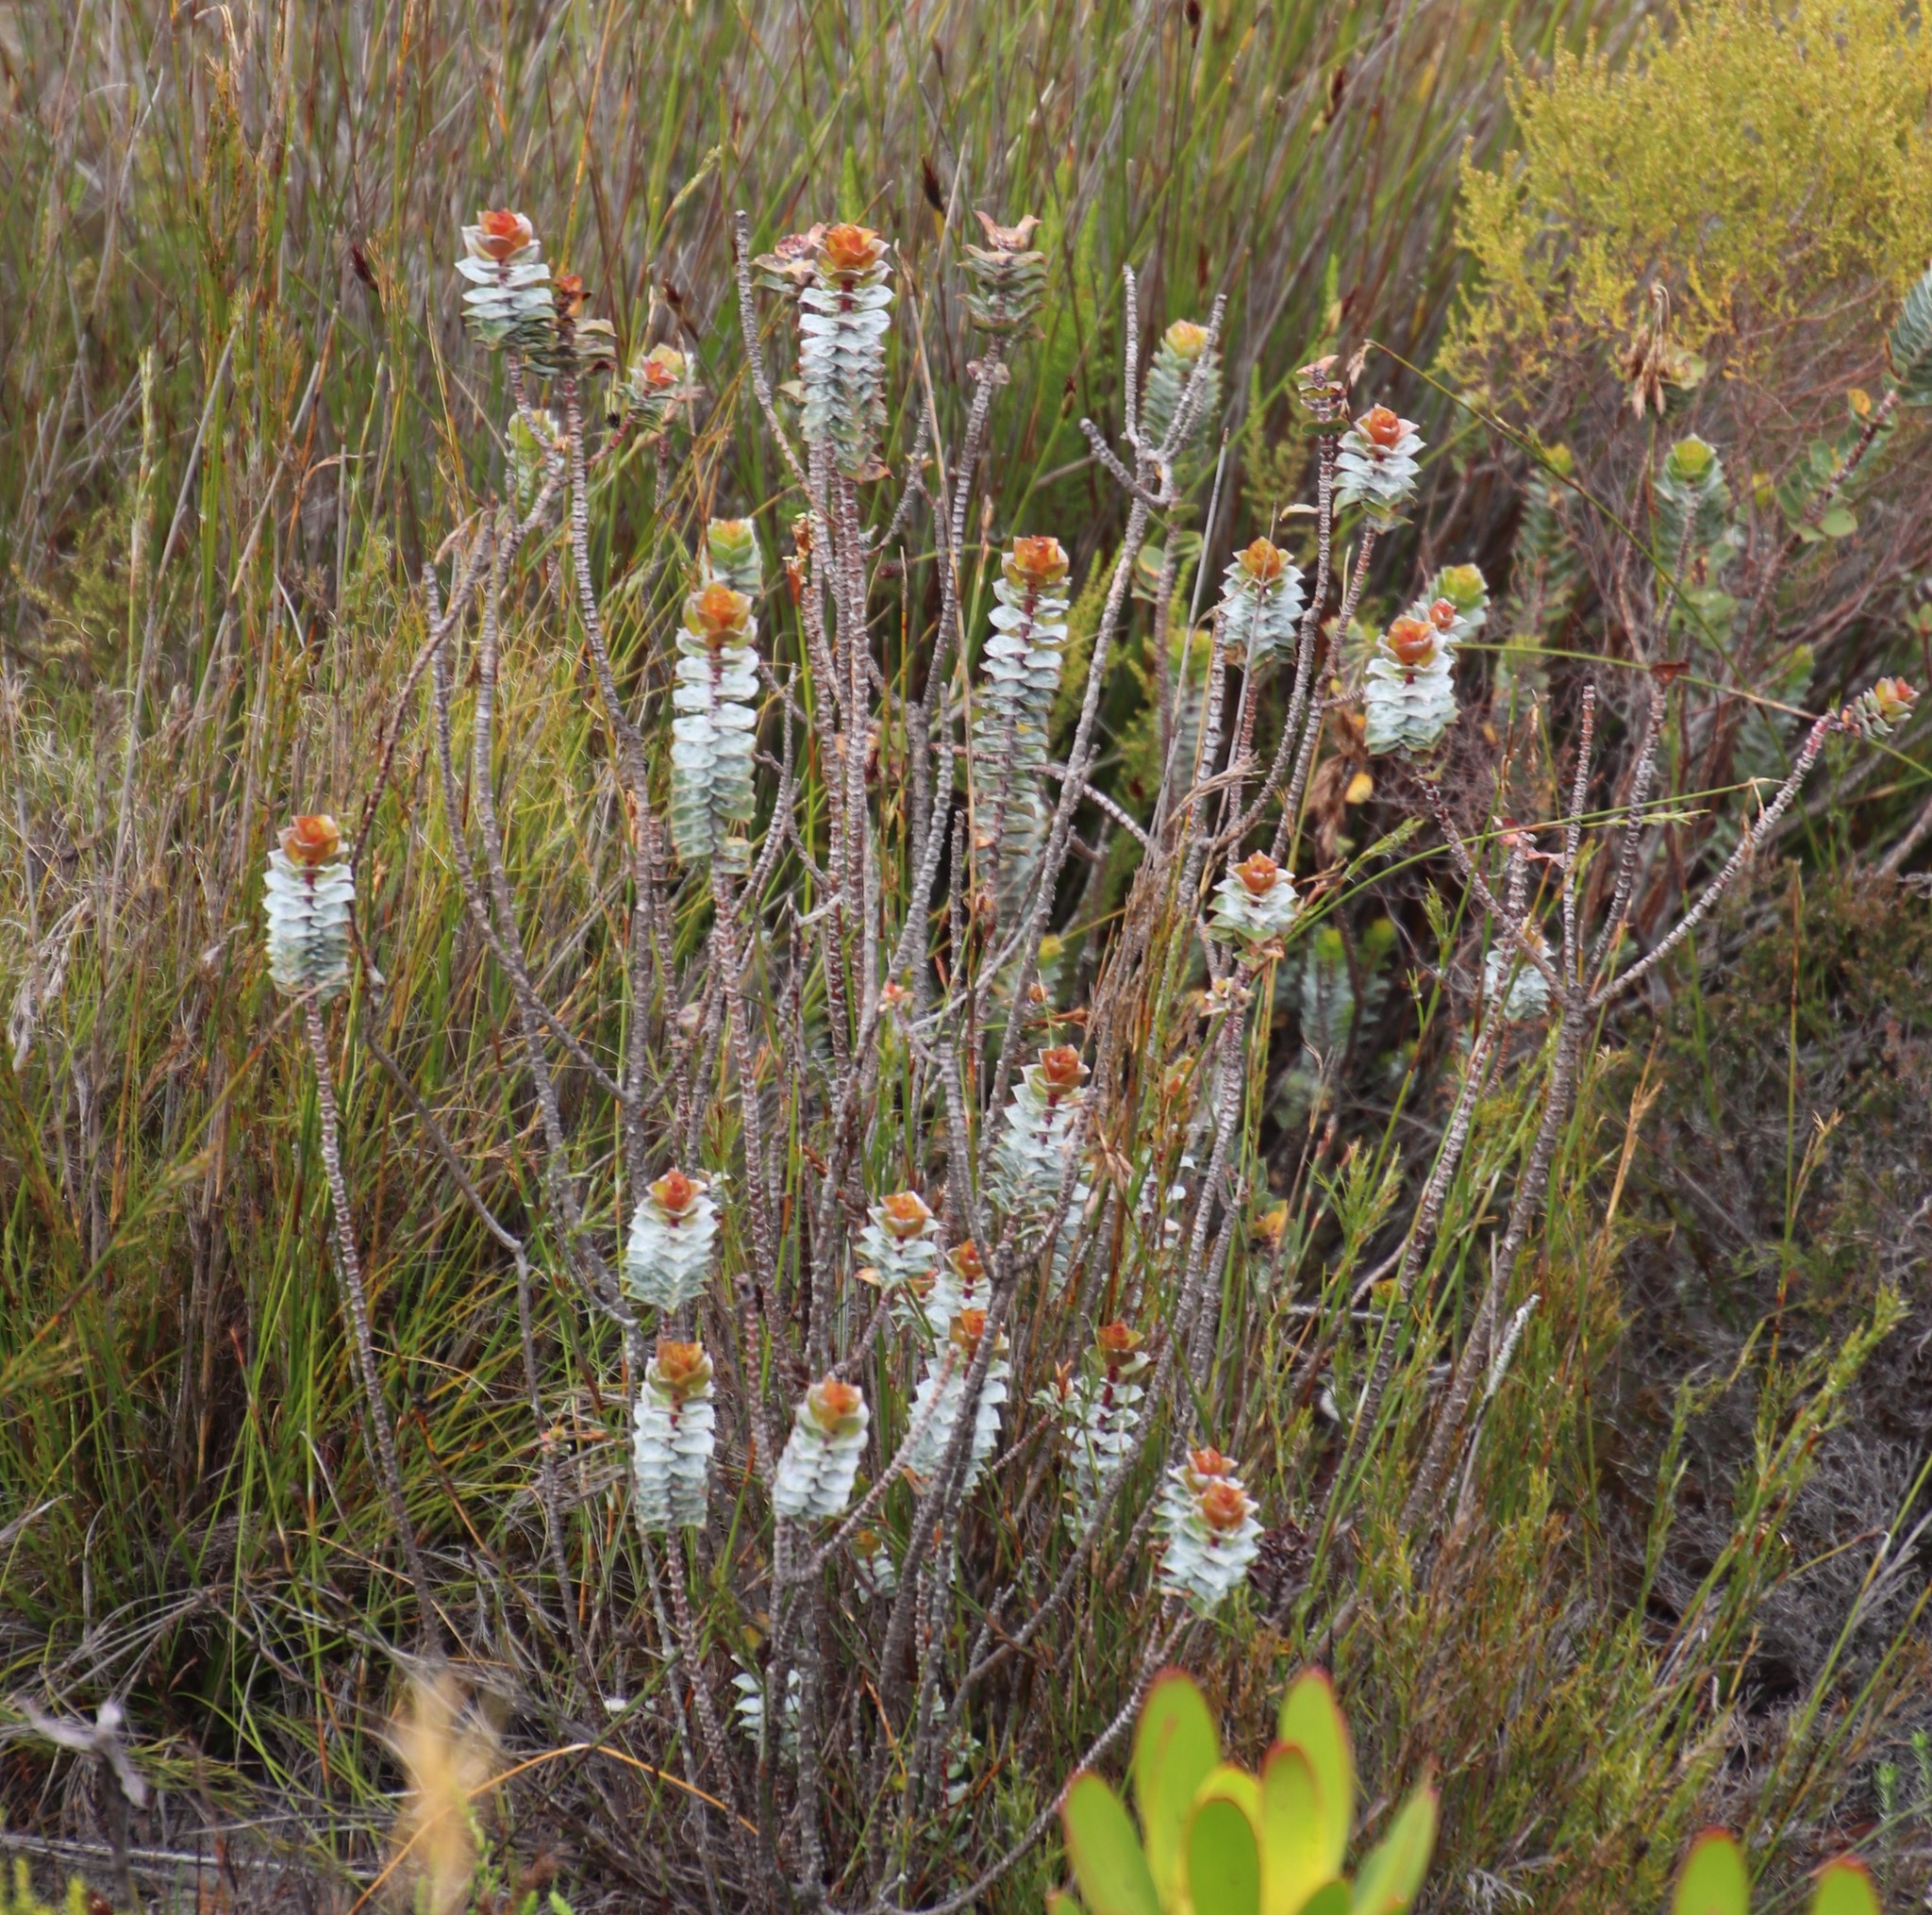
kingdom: Plantae
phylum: Tracheophyta
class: Magnoliopsida
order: Myrtales
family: Penaeaceae
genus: Saltera
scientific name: Saltera sarcocolla
